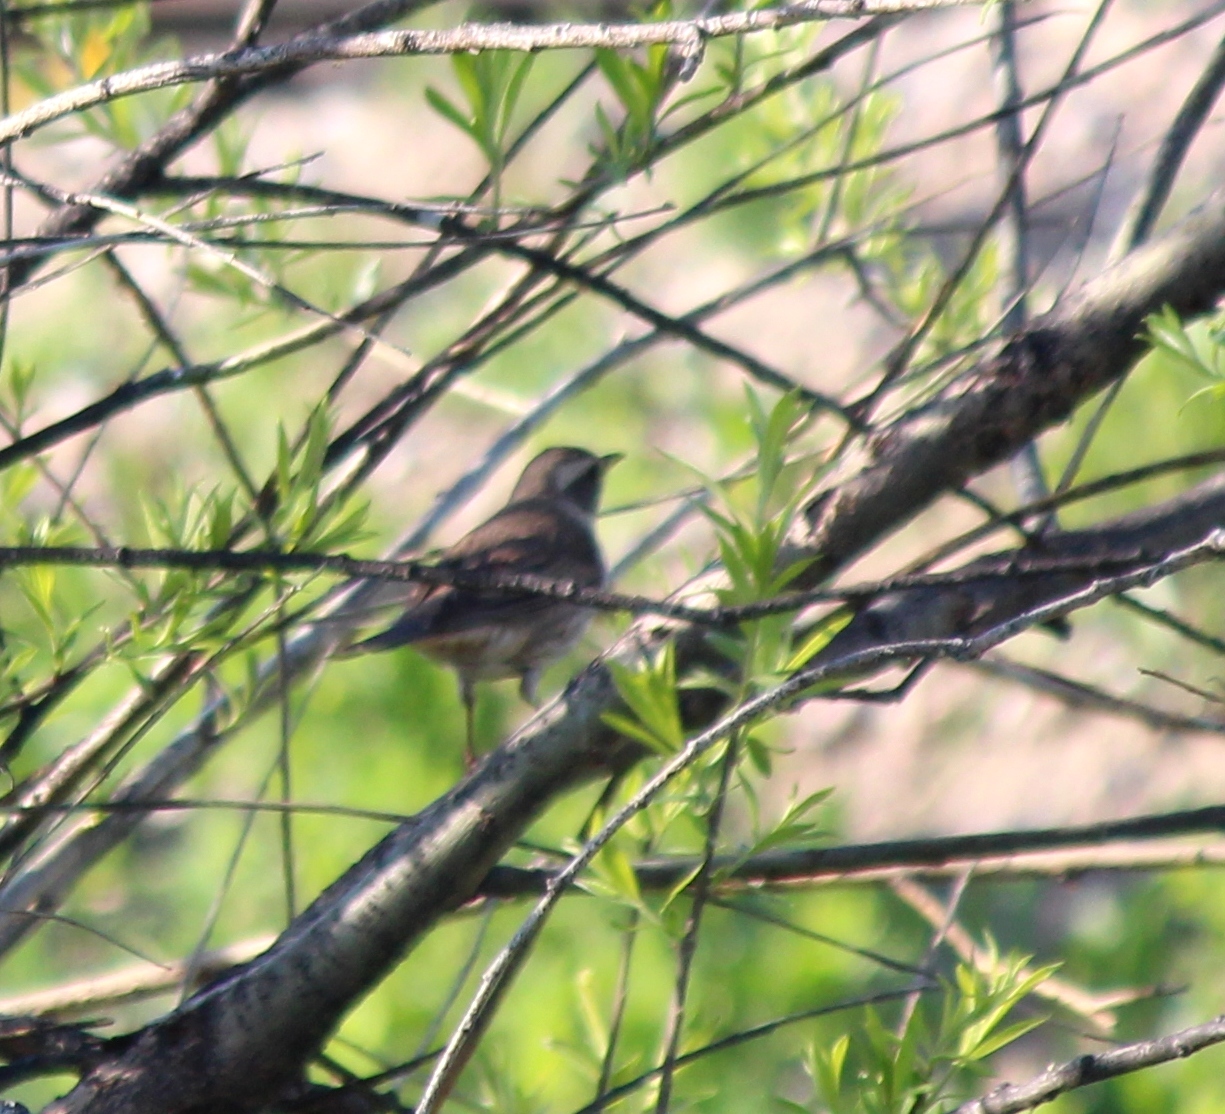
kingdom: Animalia
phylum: Chordata
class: Aves
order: Passeriformes
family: Turdidae
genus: Turdus
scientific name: Turdus
